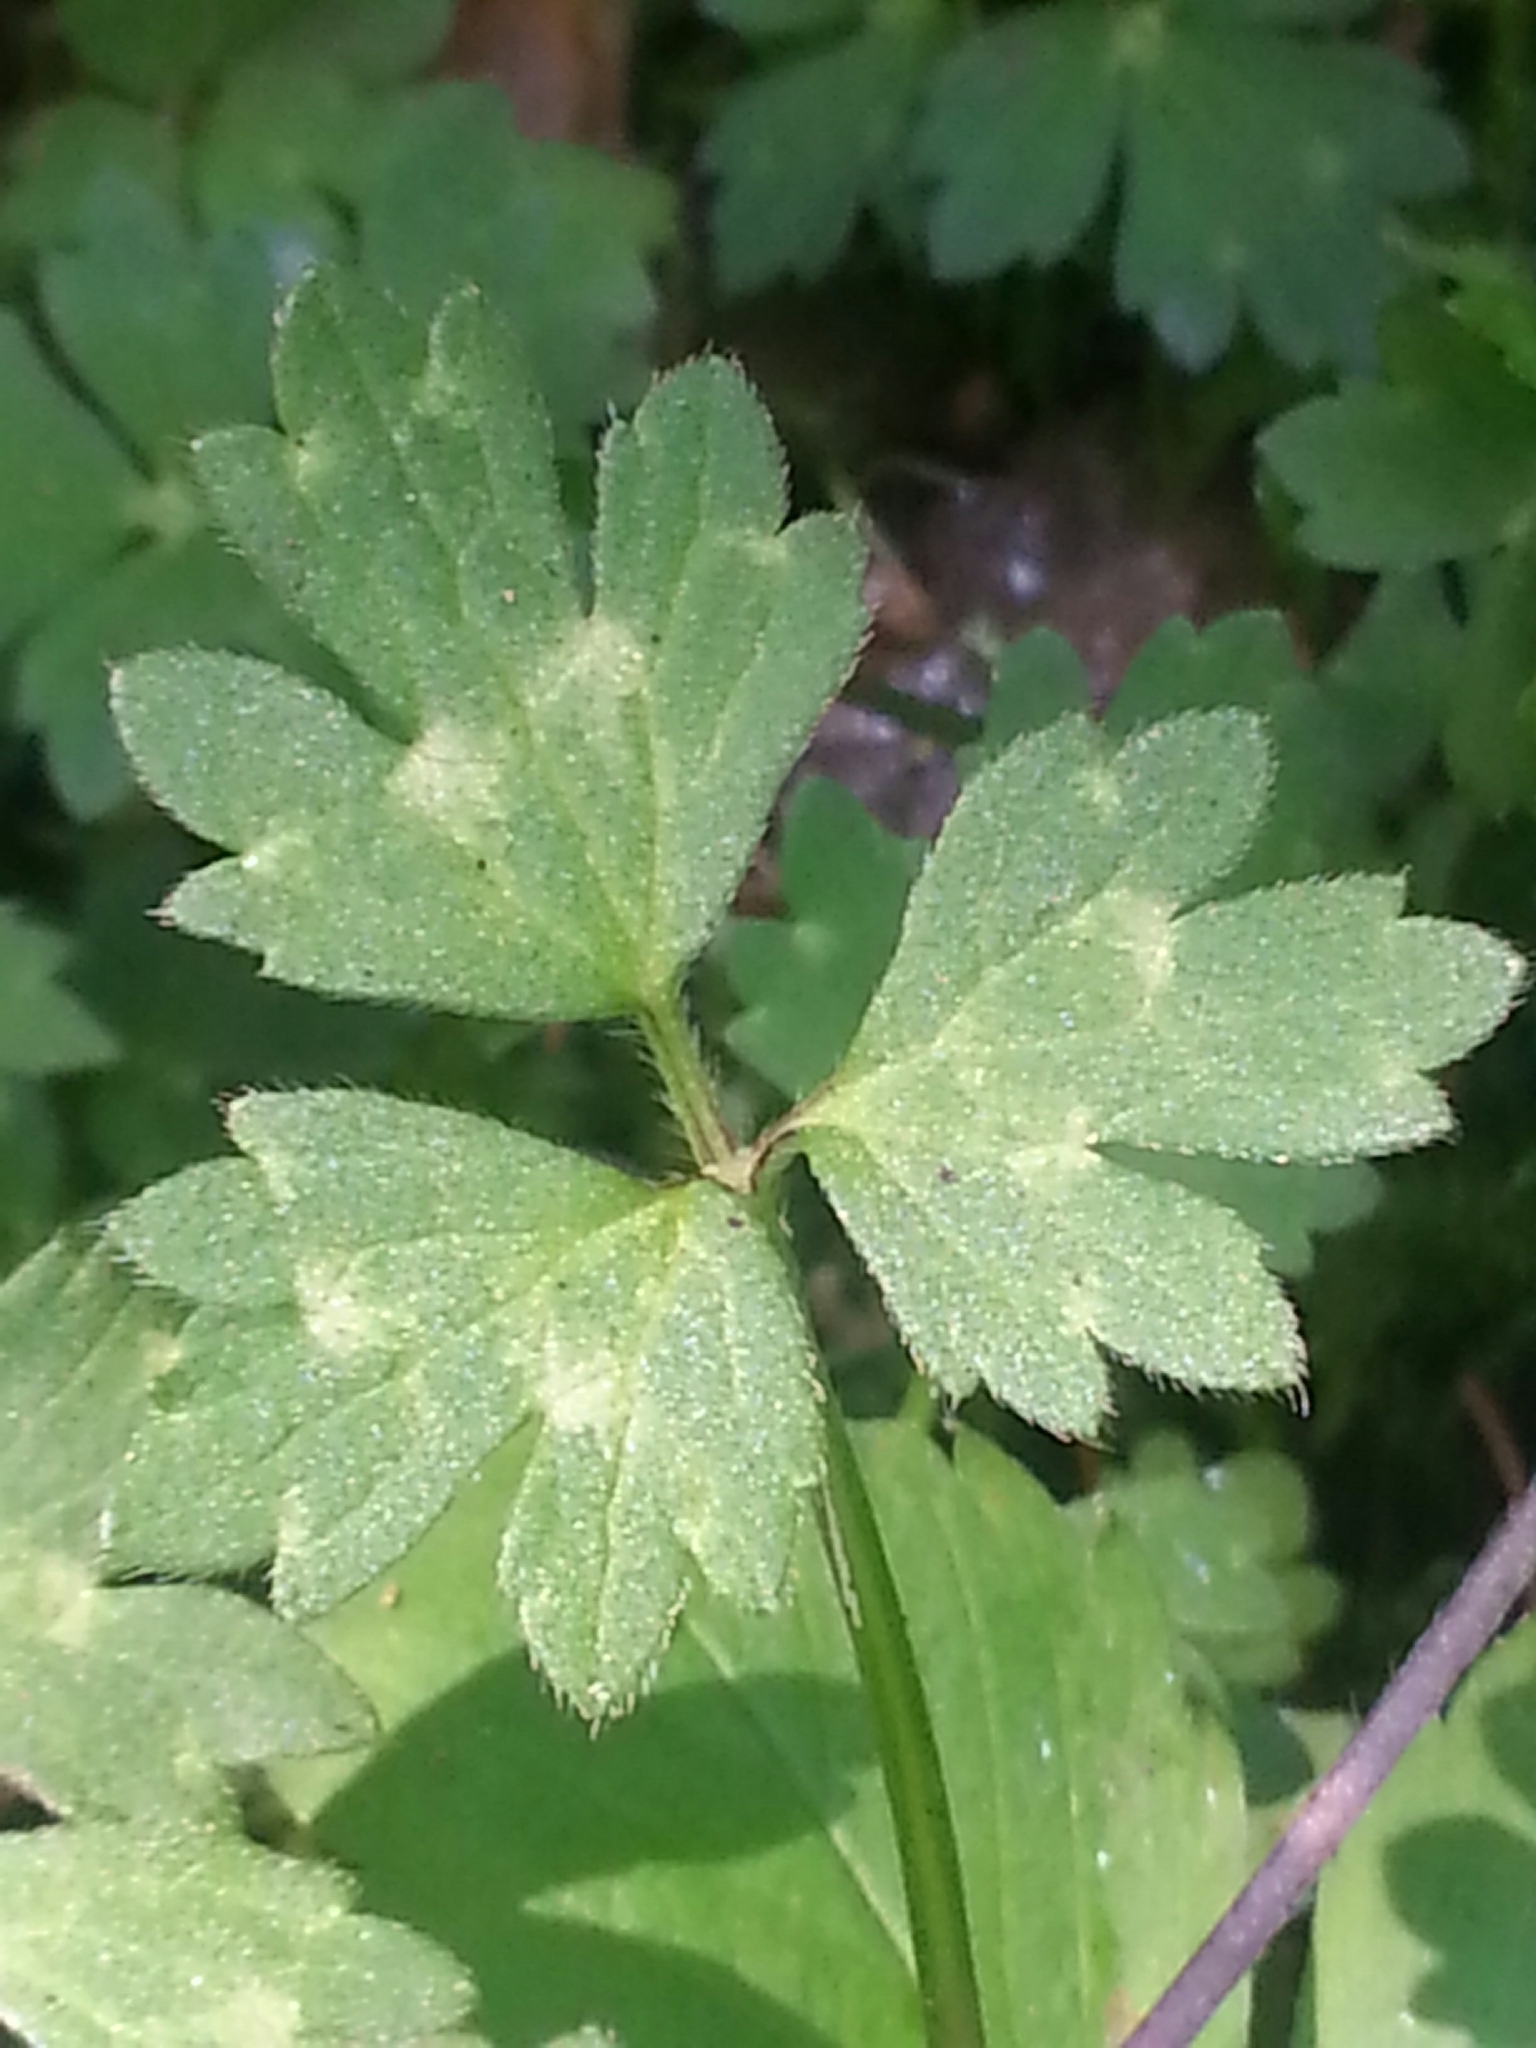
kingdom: Plantae
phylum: Tracheophyta
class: Magnoliopsida
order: Ranunculales
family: Ranunculaceae
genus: Ranunculus
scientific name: Ranunculus repens
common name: Creeping buttercup
